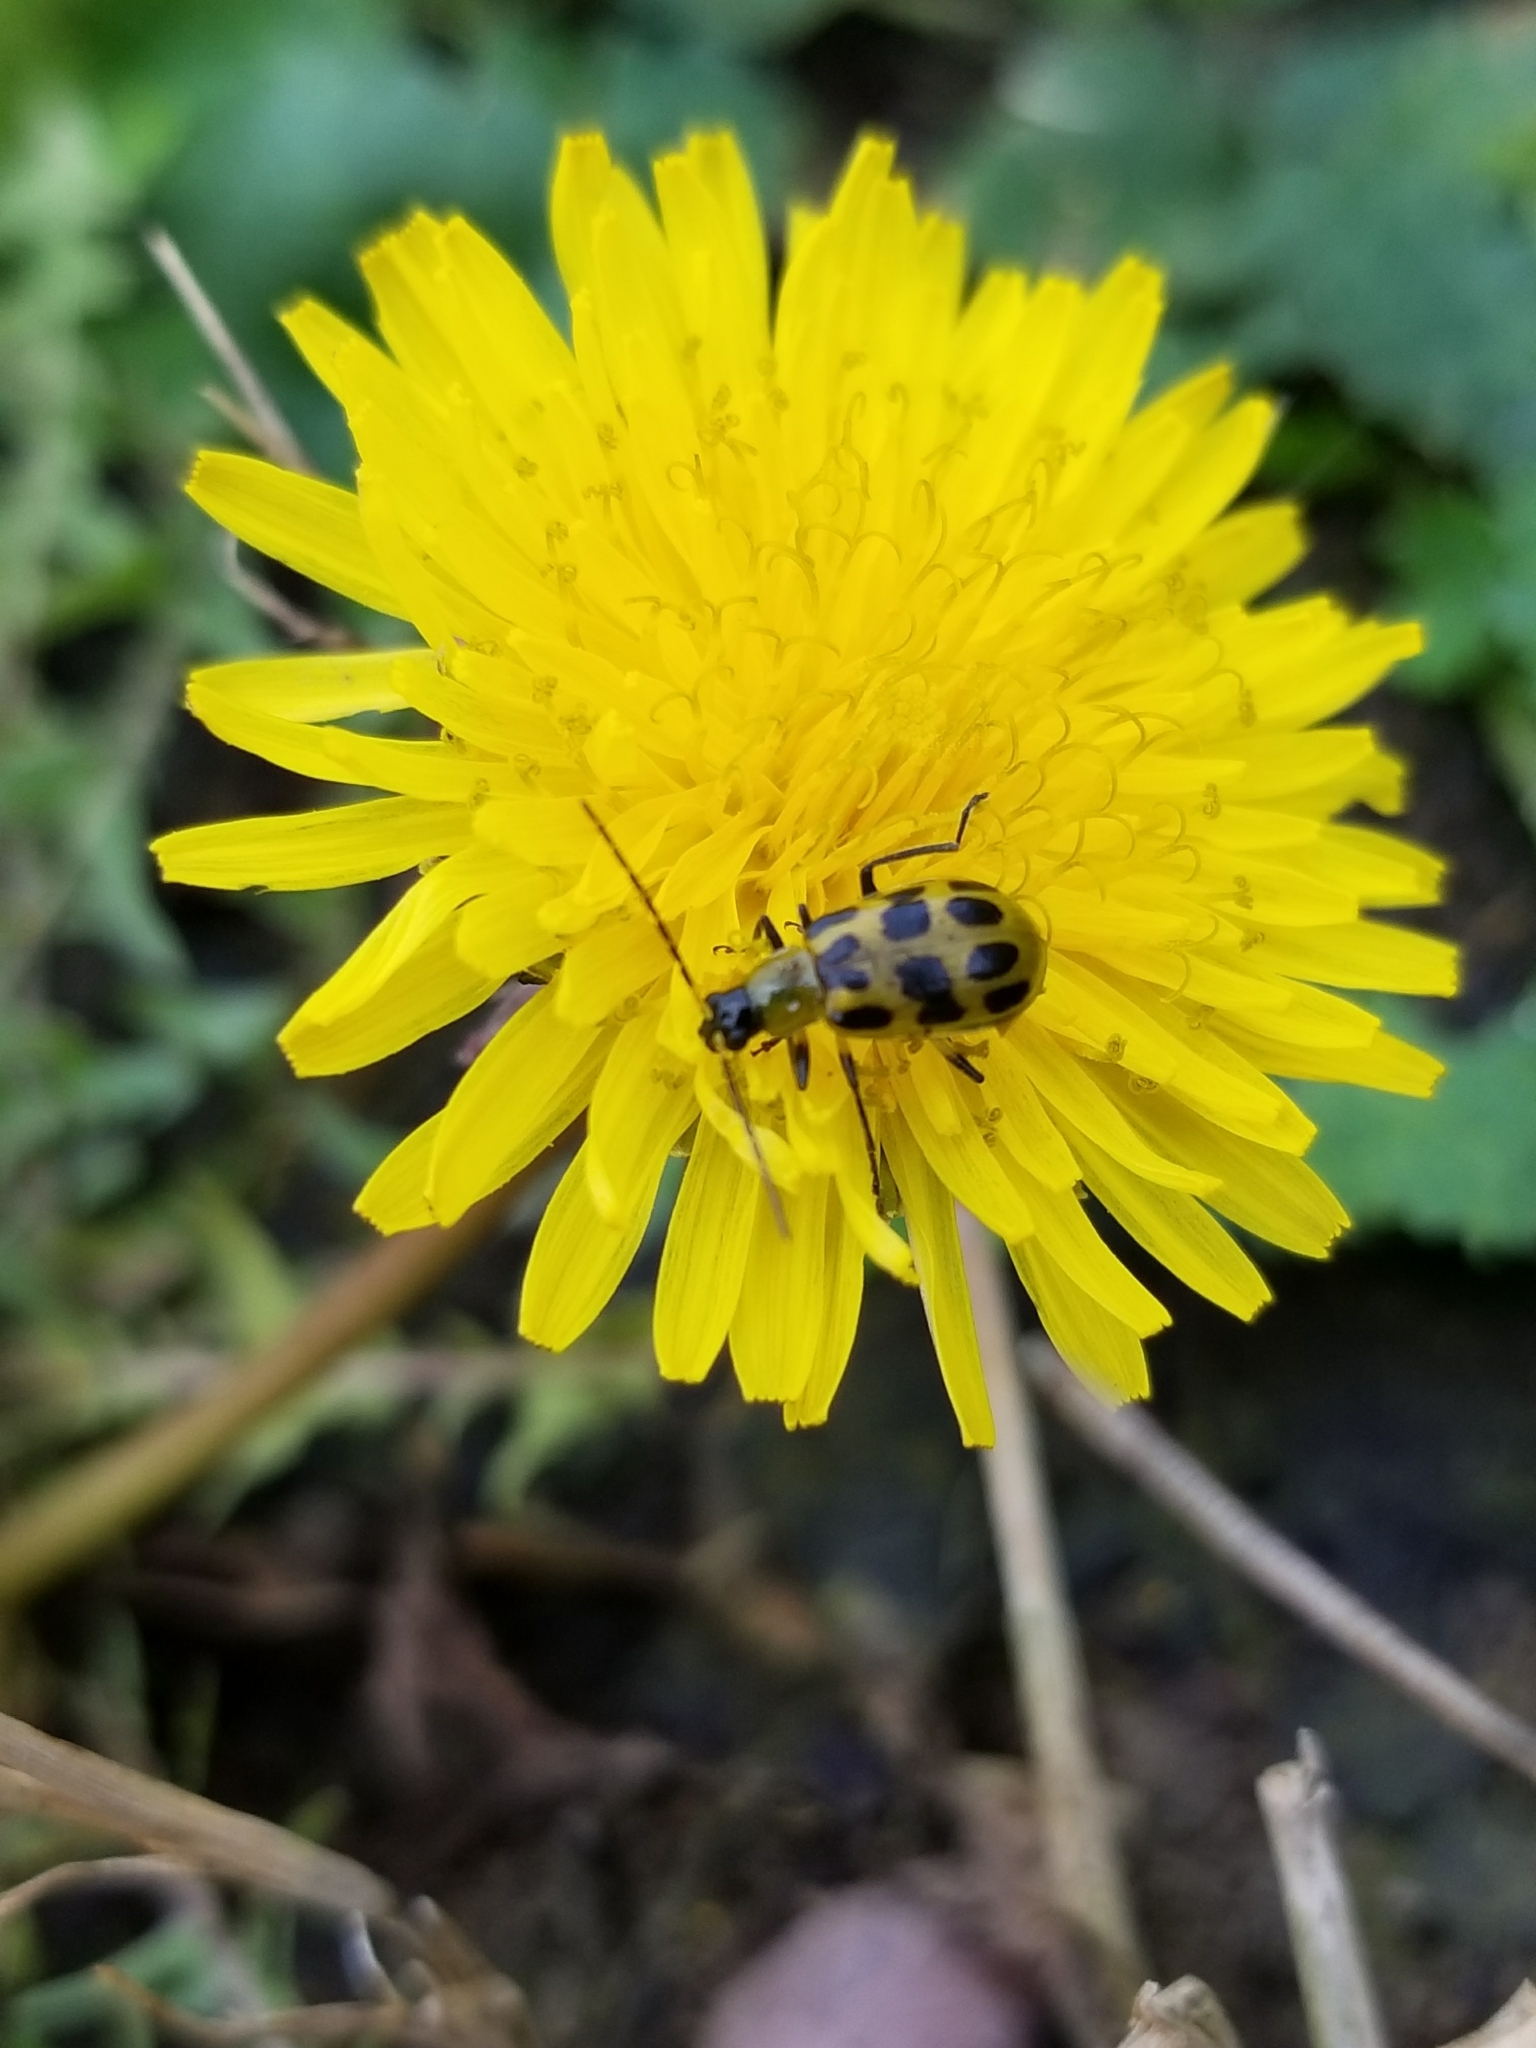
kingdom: Animalia
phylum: Arthropoda
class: Insecta
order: Coleoptera
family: Chrysomelidae
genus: Diabrotica
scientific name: Diabrotica undecimpunctata
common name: Spotted cucumber beetle
